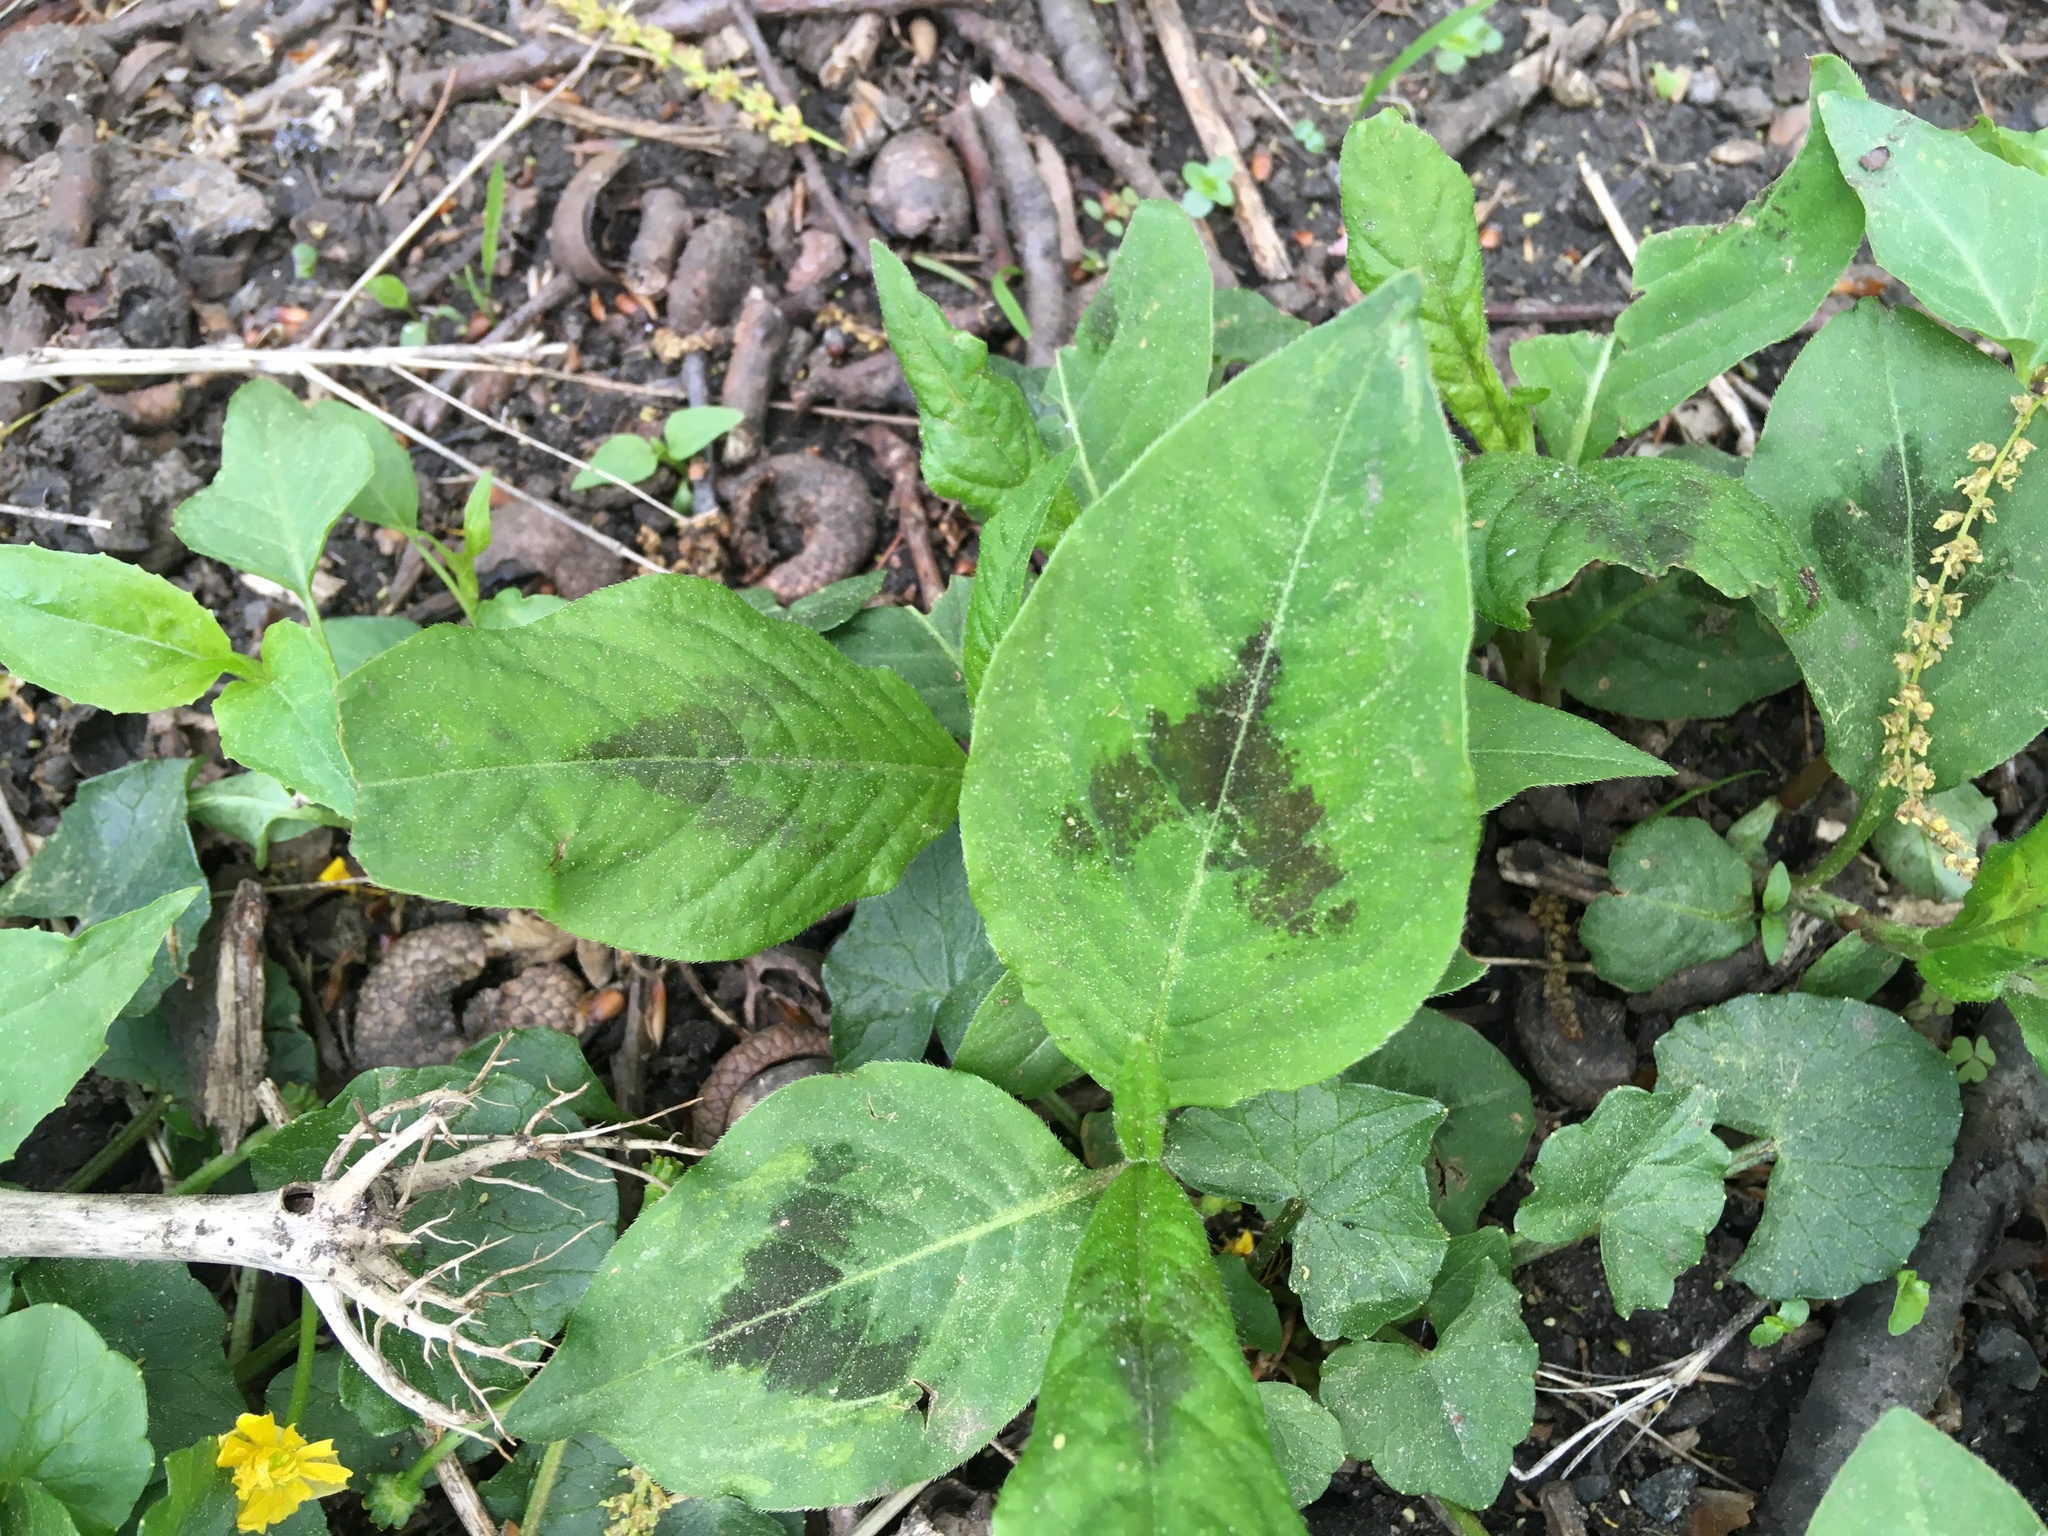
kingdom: Plantae
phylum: Tracheophyta
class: Magnoliopsida
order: Caryophyllales
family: Polygonaceae
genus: Persicaria
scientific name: Persicaria virginiana
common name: Jumpseed
